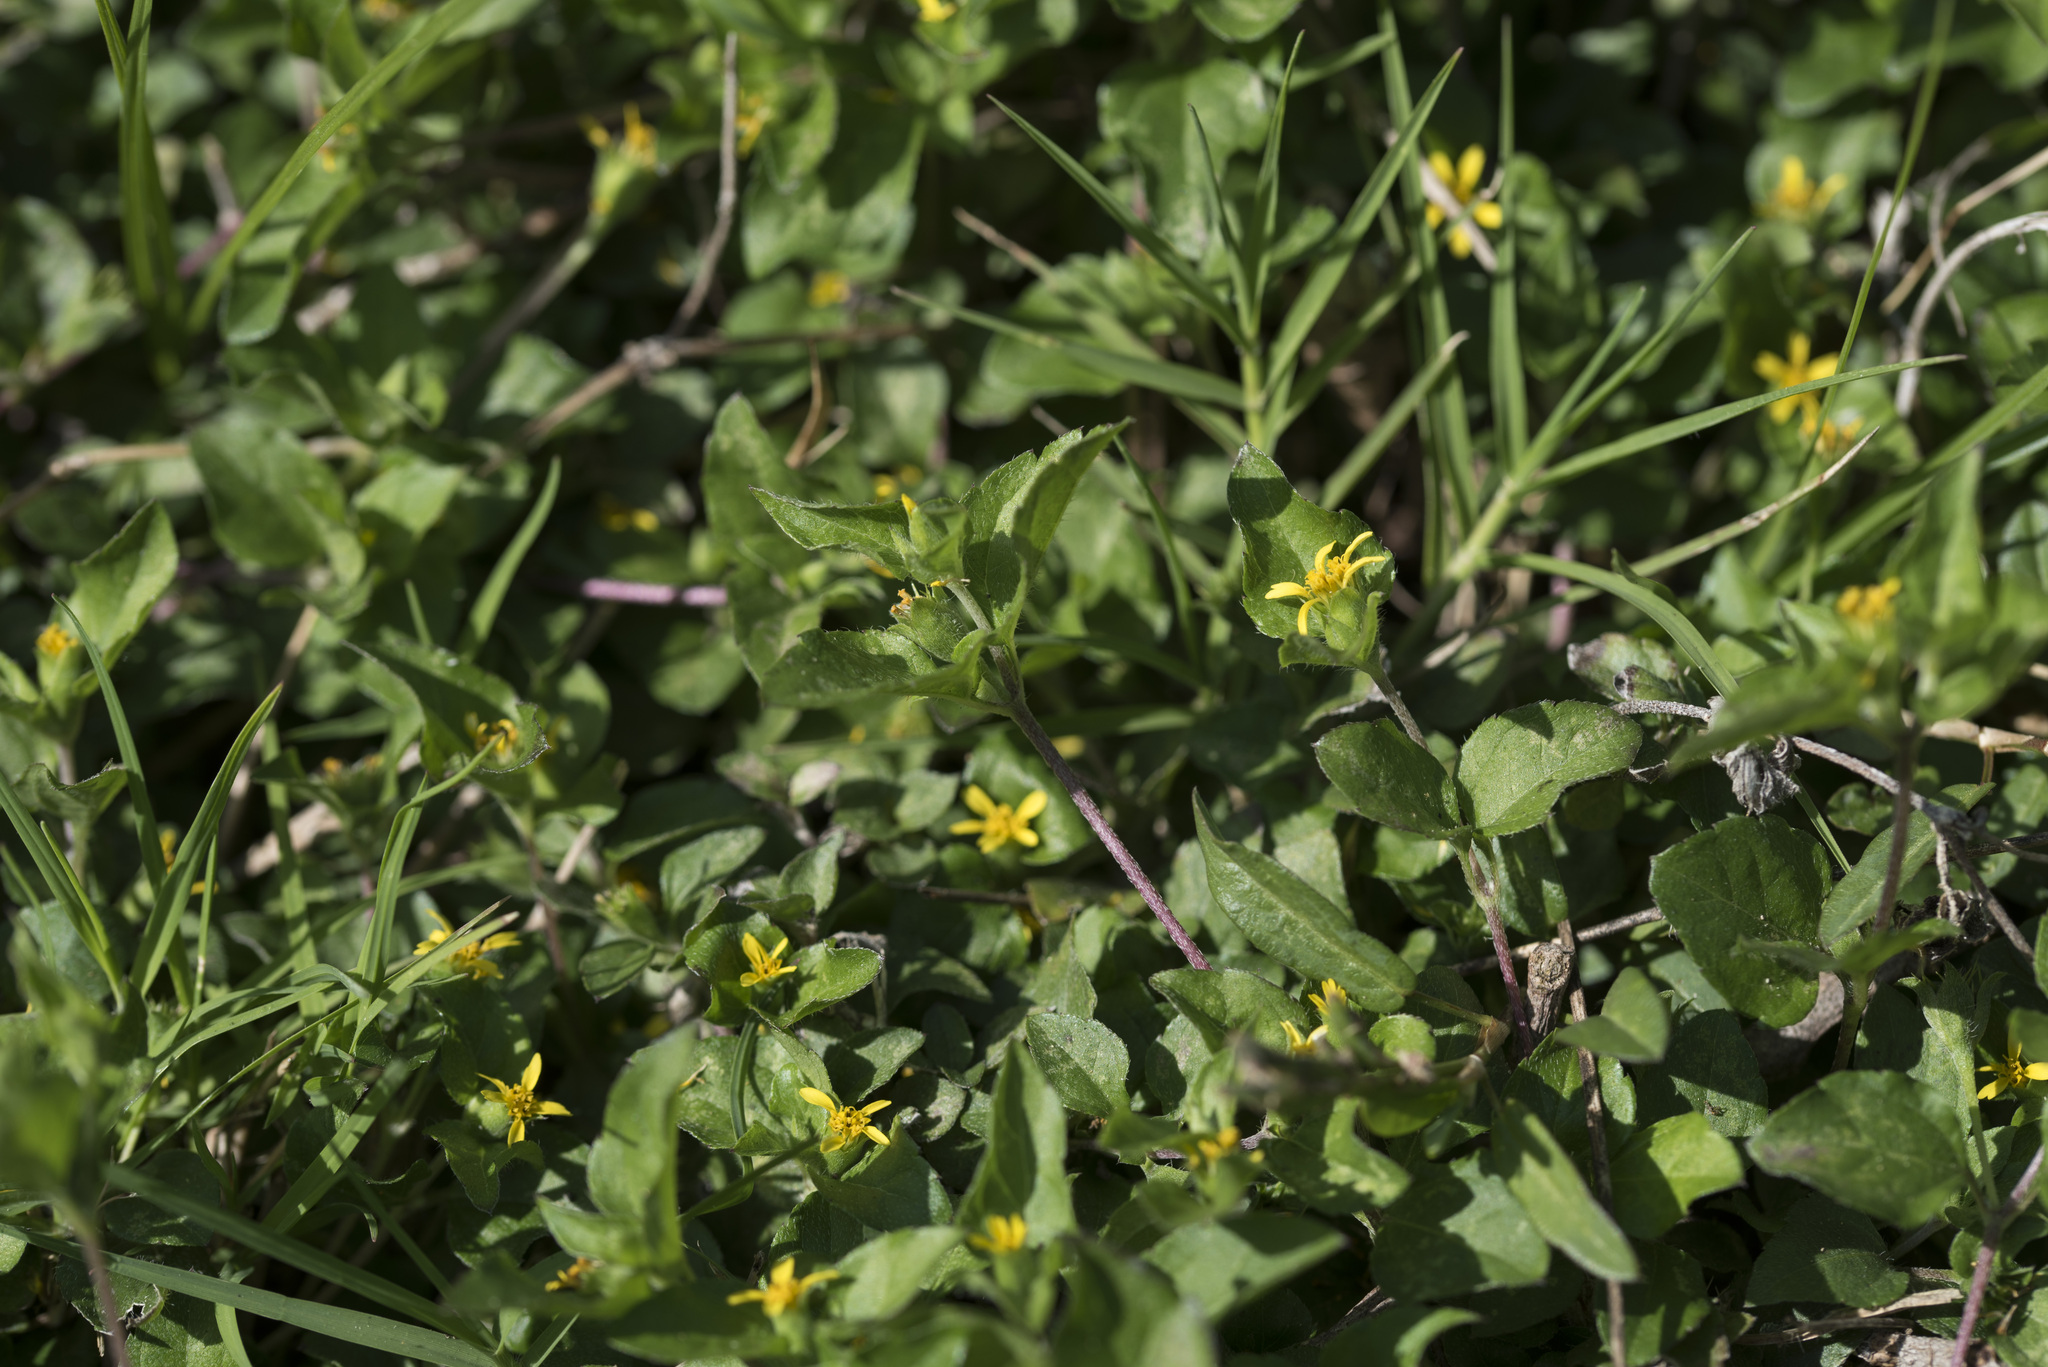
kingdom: Plantae
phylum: Tracheophyta
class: Magnoliopsida
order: Asterales
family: Asteraceae
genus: Calyptocarpus
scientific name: Calyptocarpus vialis
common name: Straggler daisy
